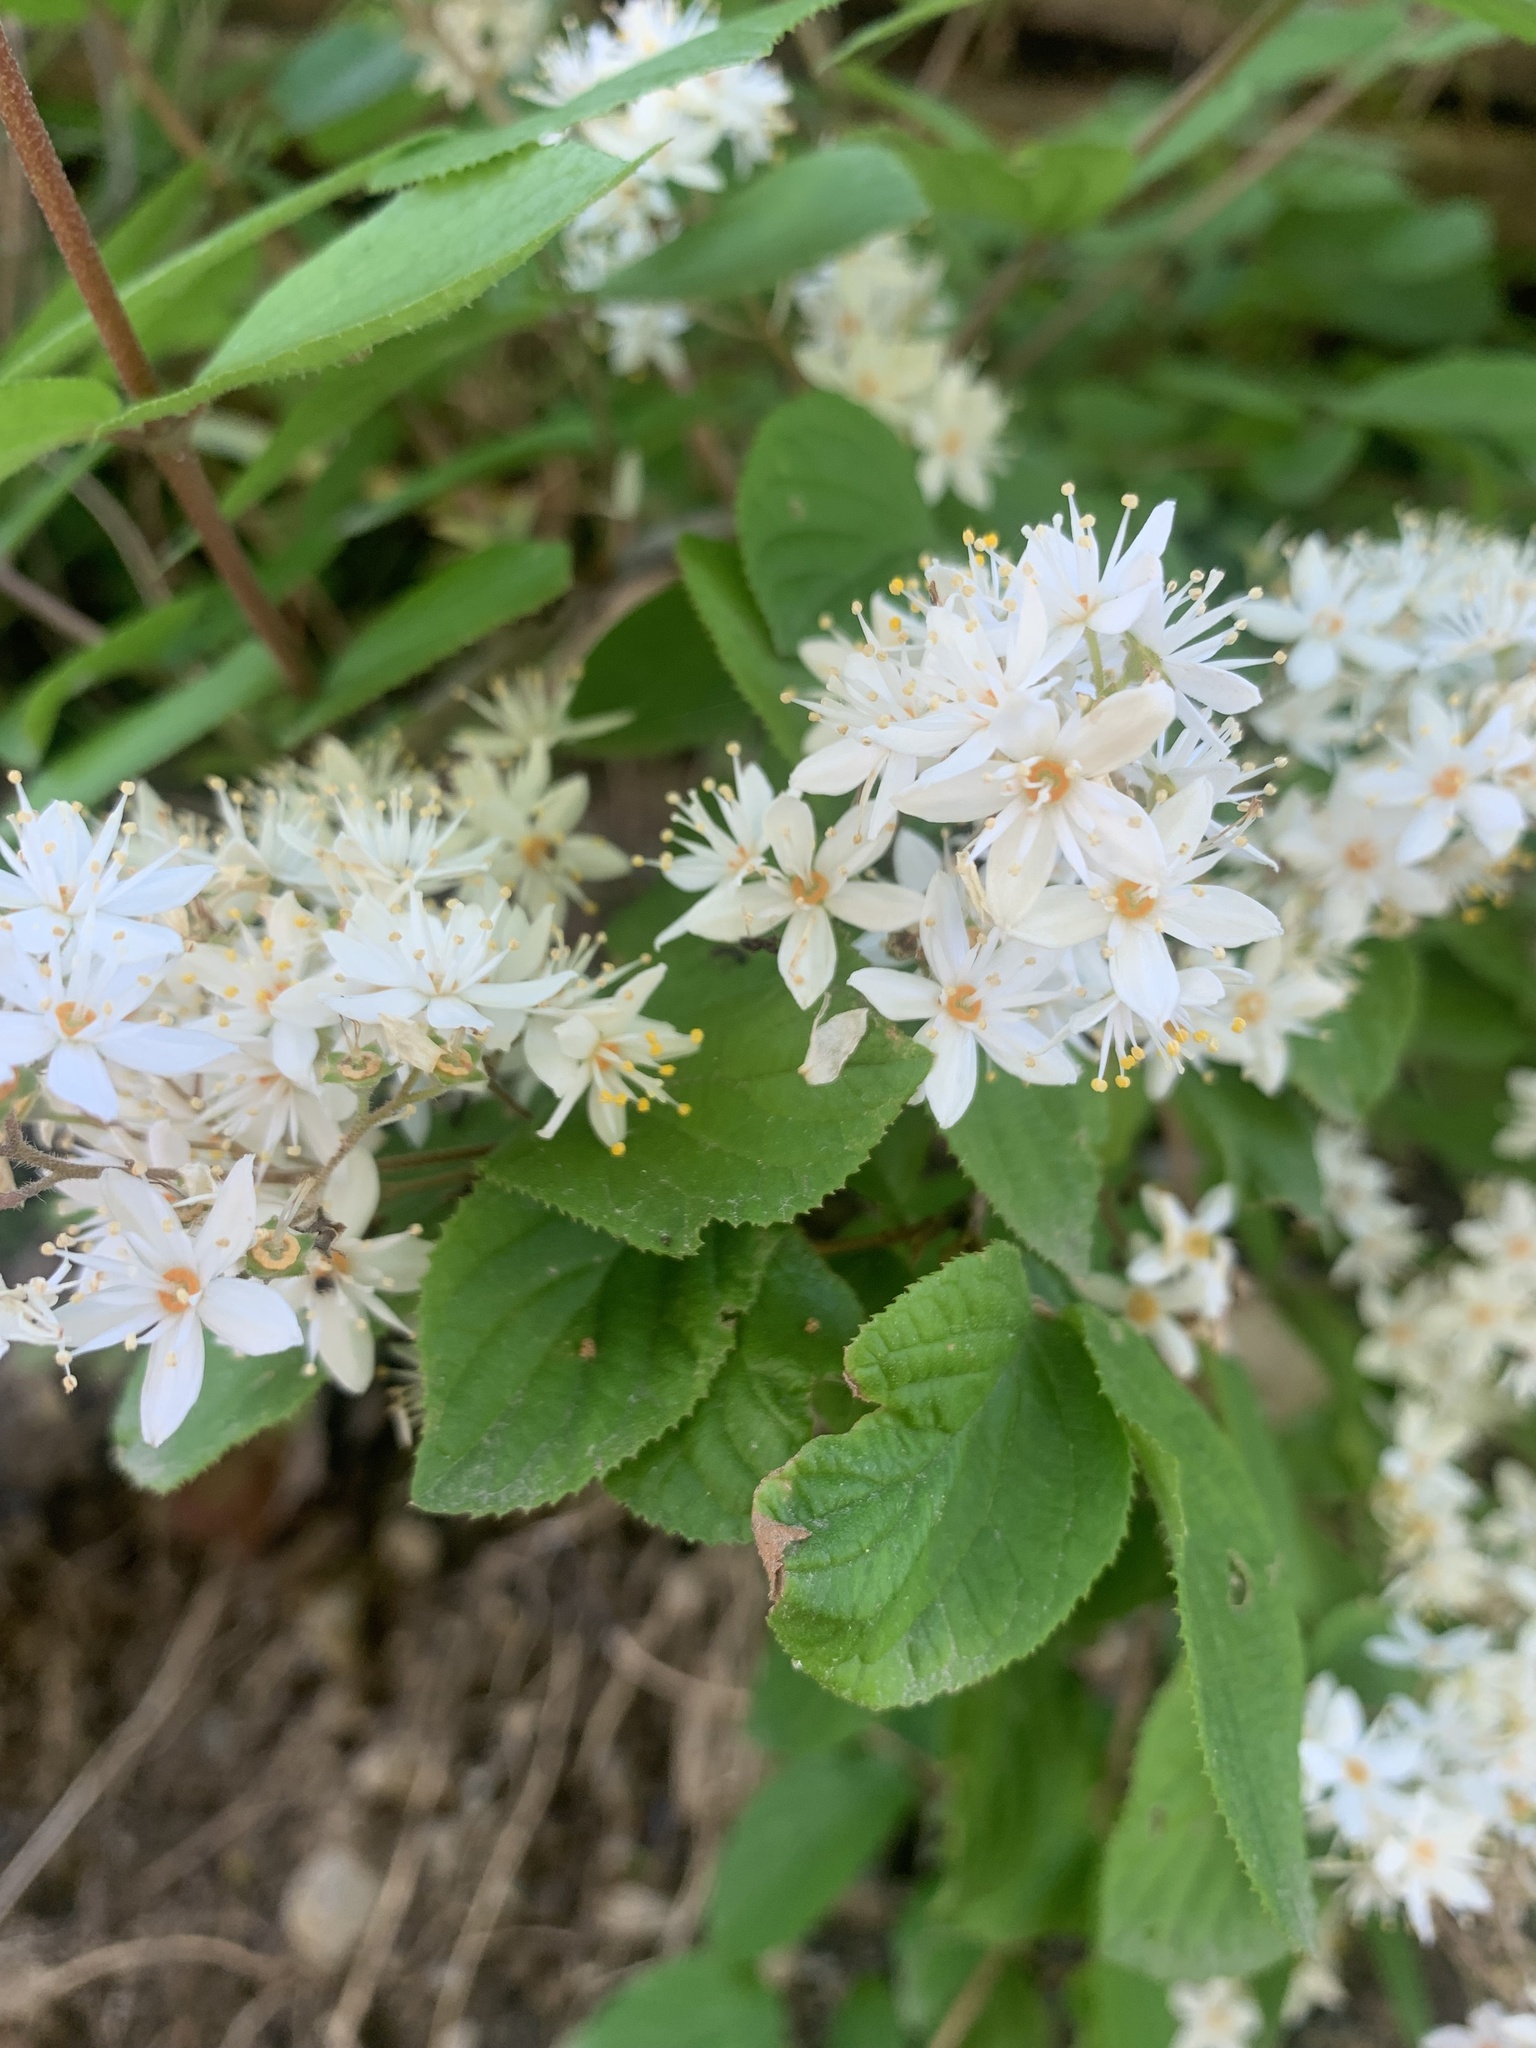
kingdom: Plantae
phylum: Tracheophyta
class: Magnoliopsida
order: Cornales
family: Hydrangeaceae
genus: Deutzia
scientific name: Deutzia scabra
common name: Deutzia
